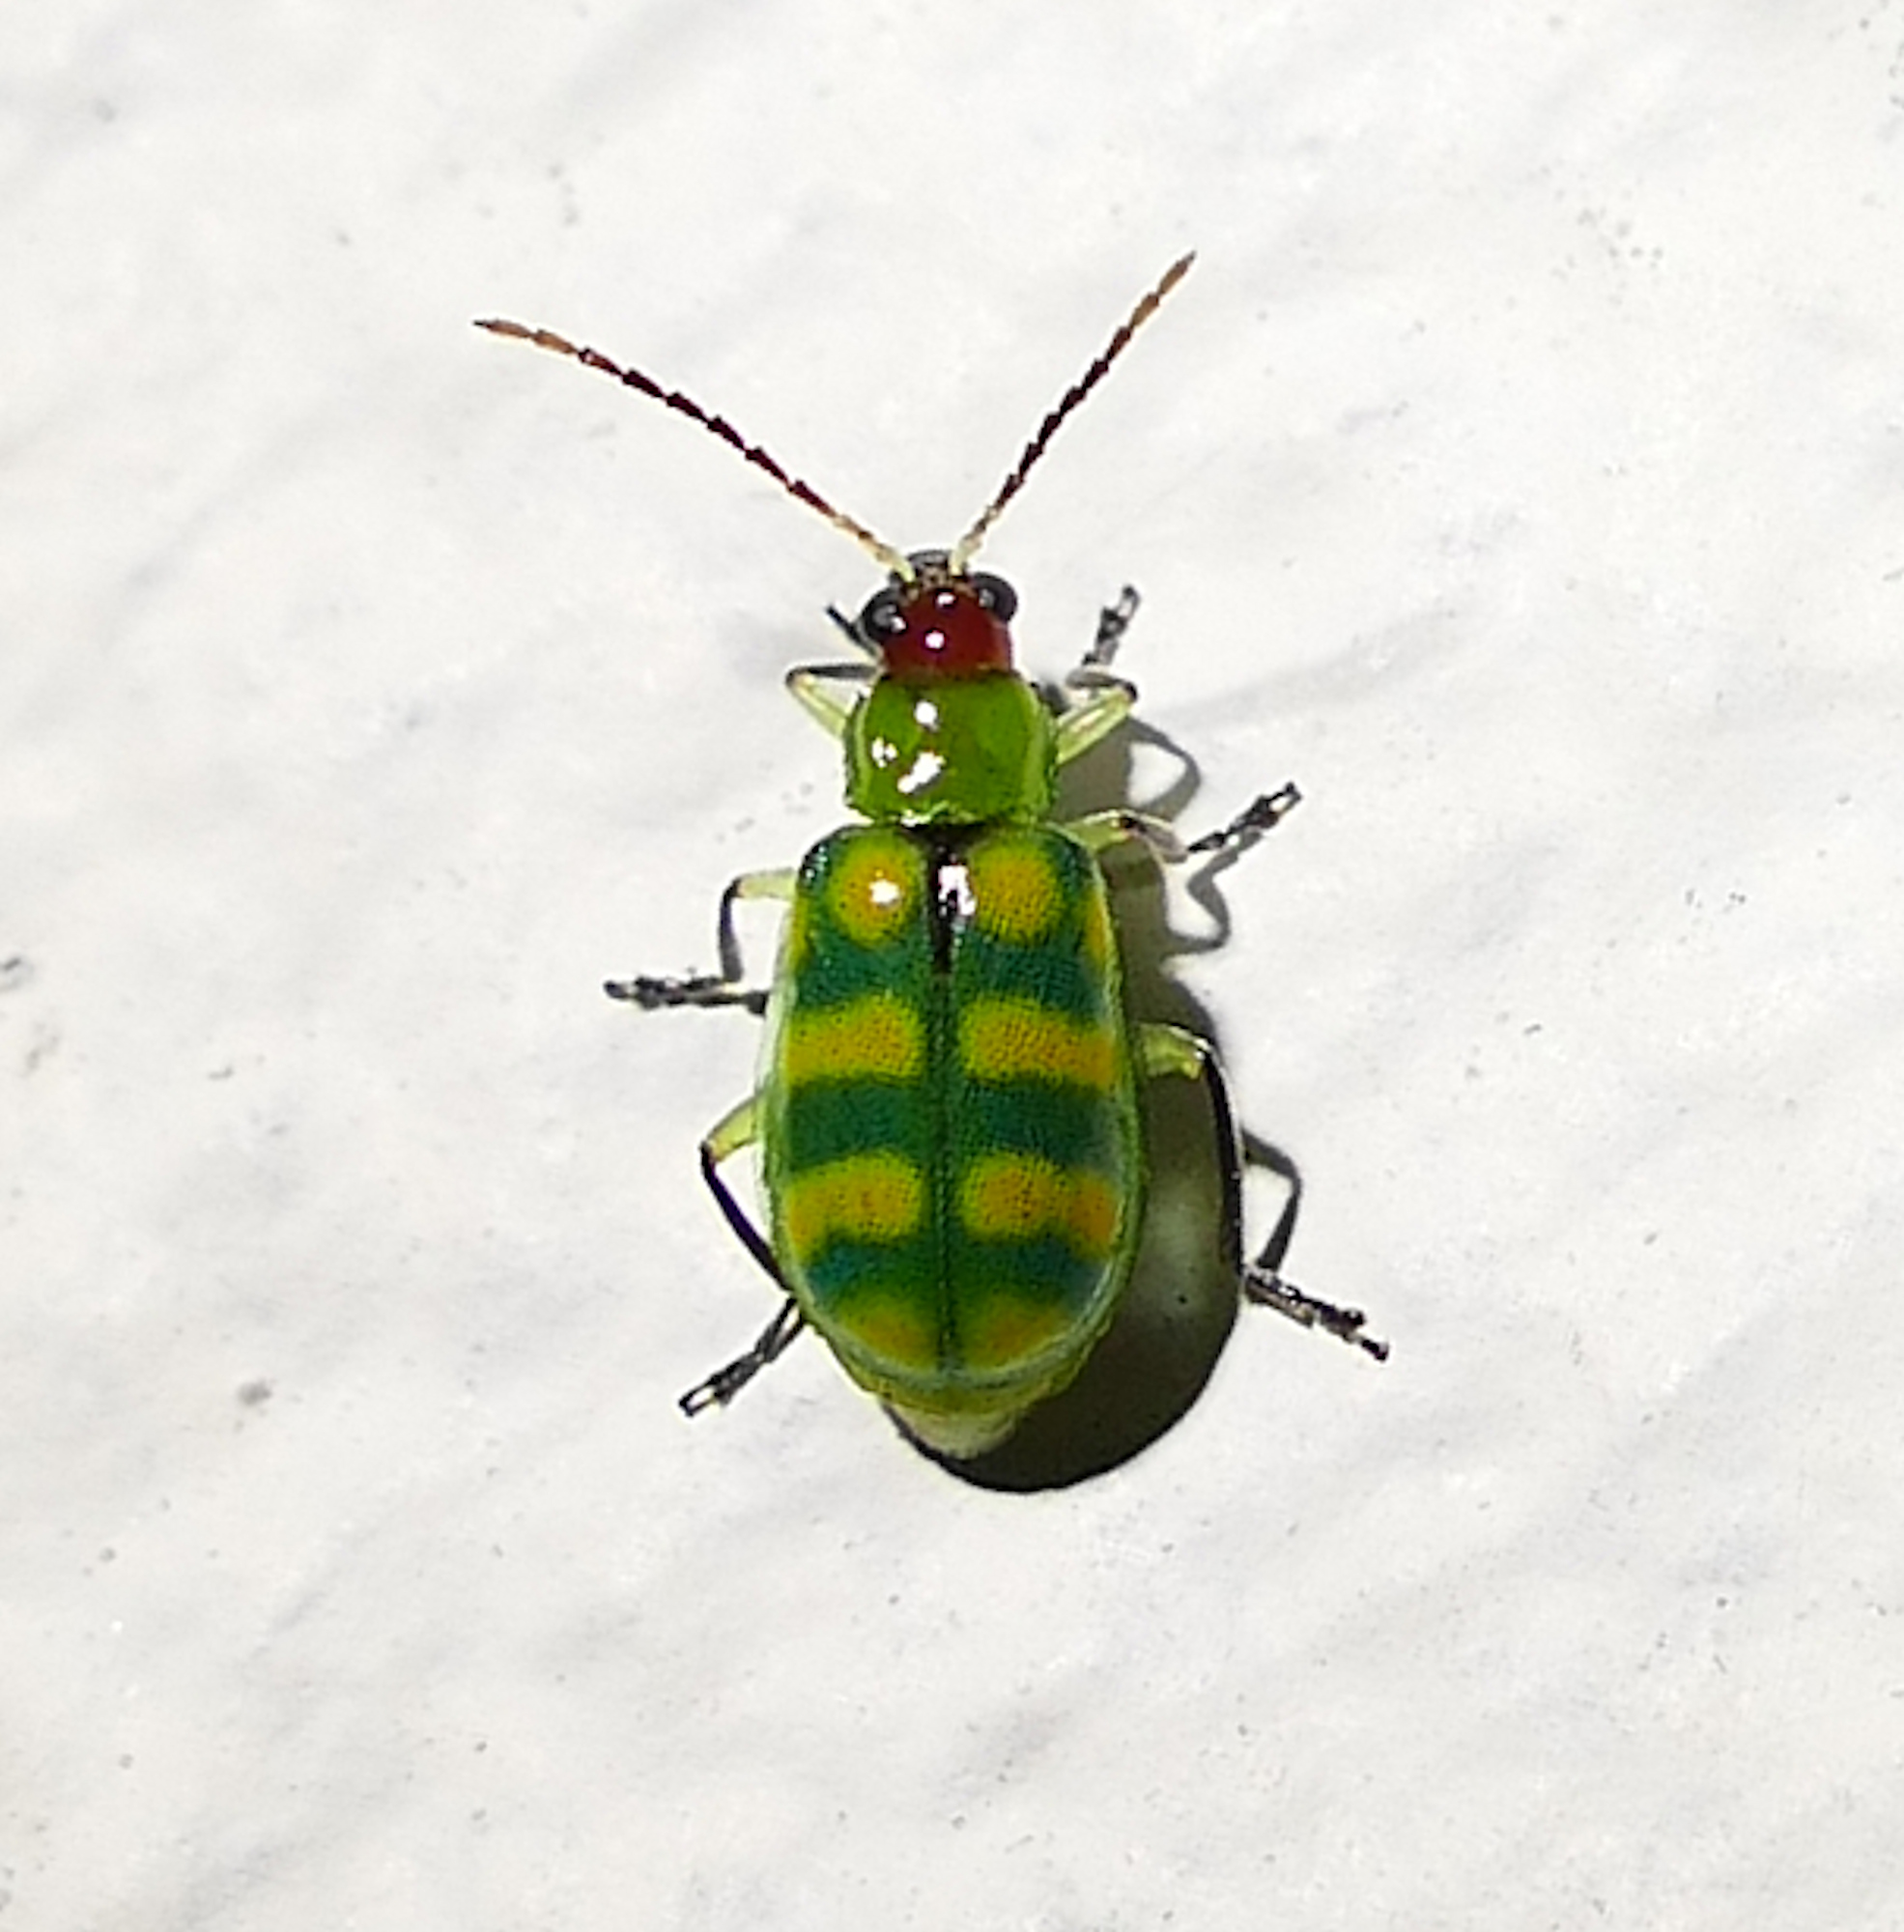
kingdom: Animalia
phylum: Arthropoda
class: Insecta
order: Coleoptera
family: Chrysomelidae
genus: Diabrotica
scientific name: Diabrotica balteata
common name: Leaf beetle
